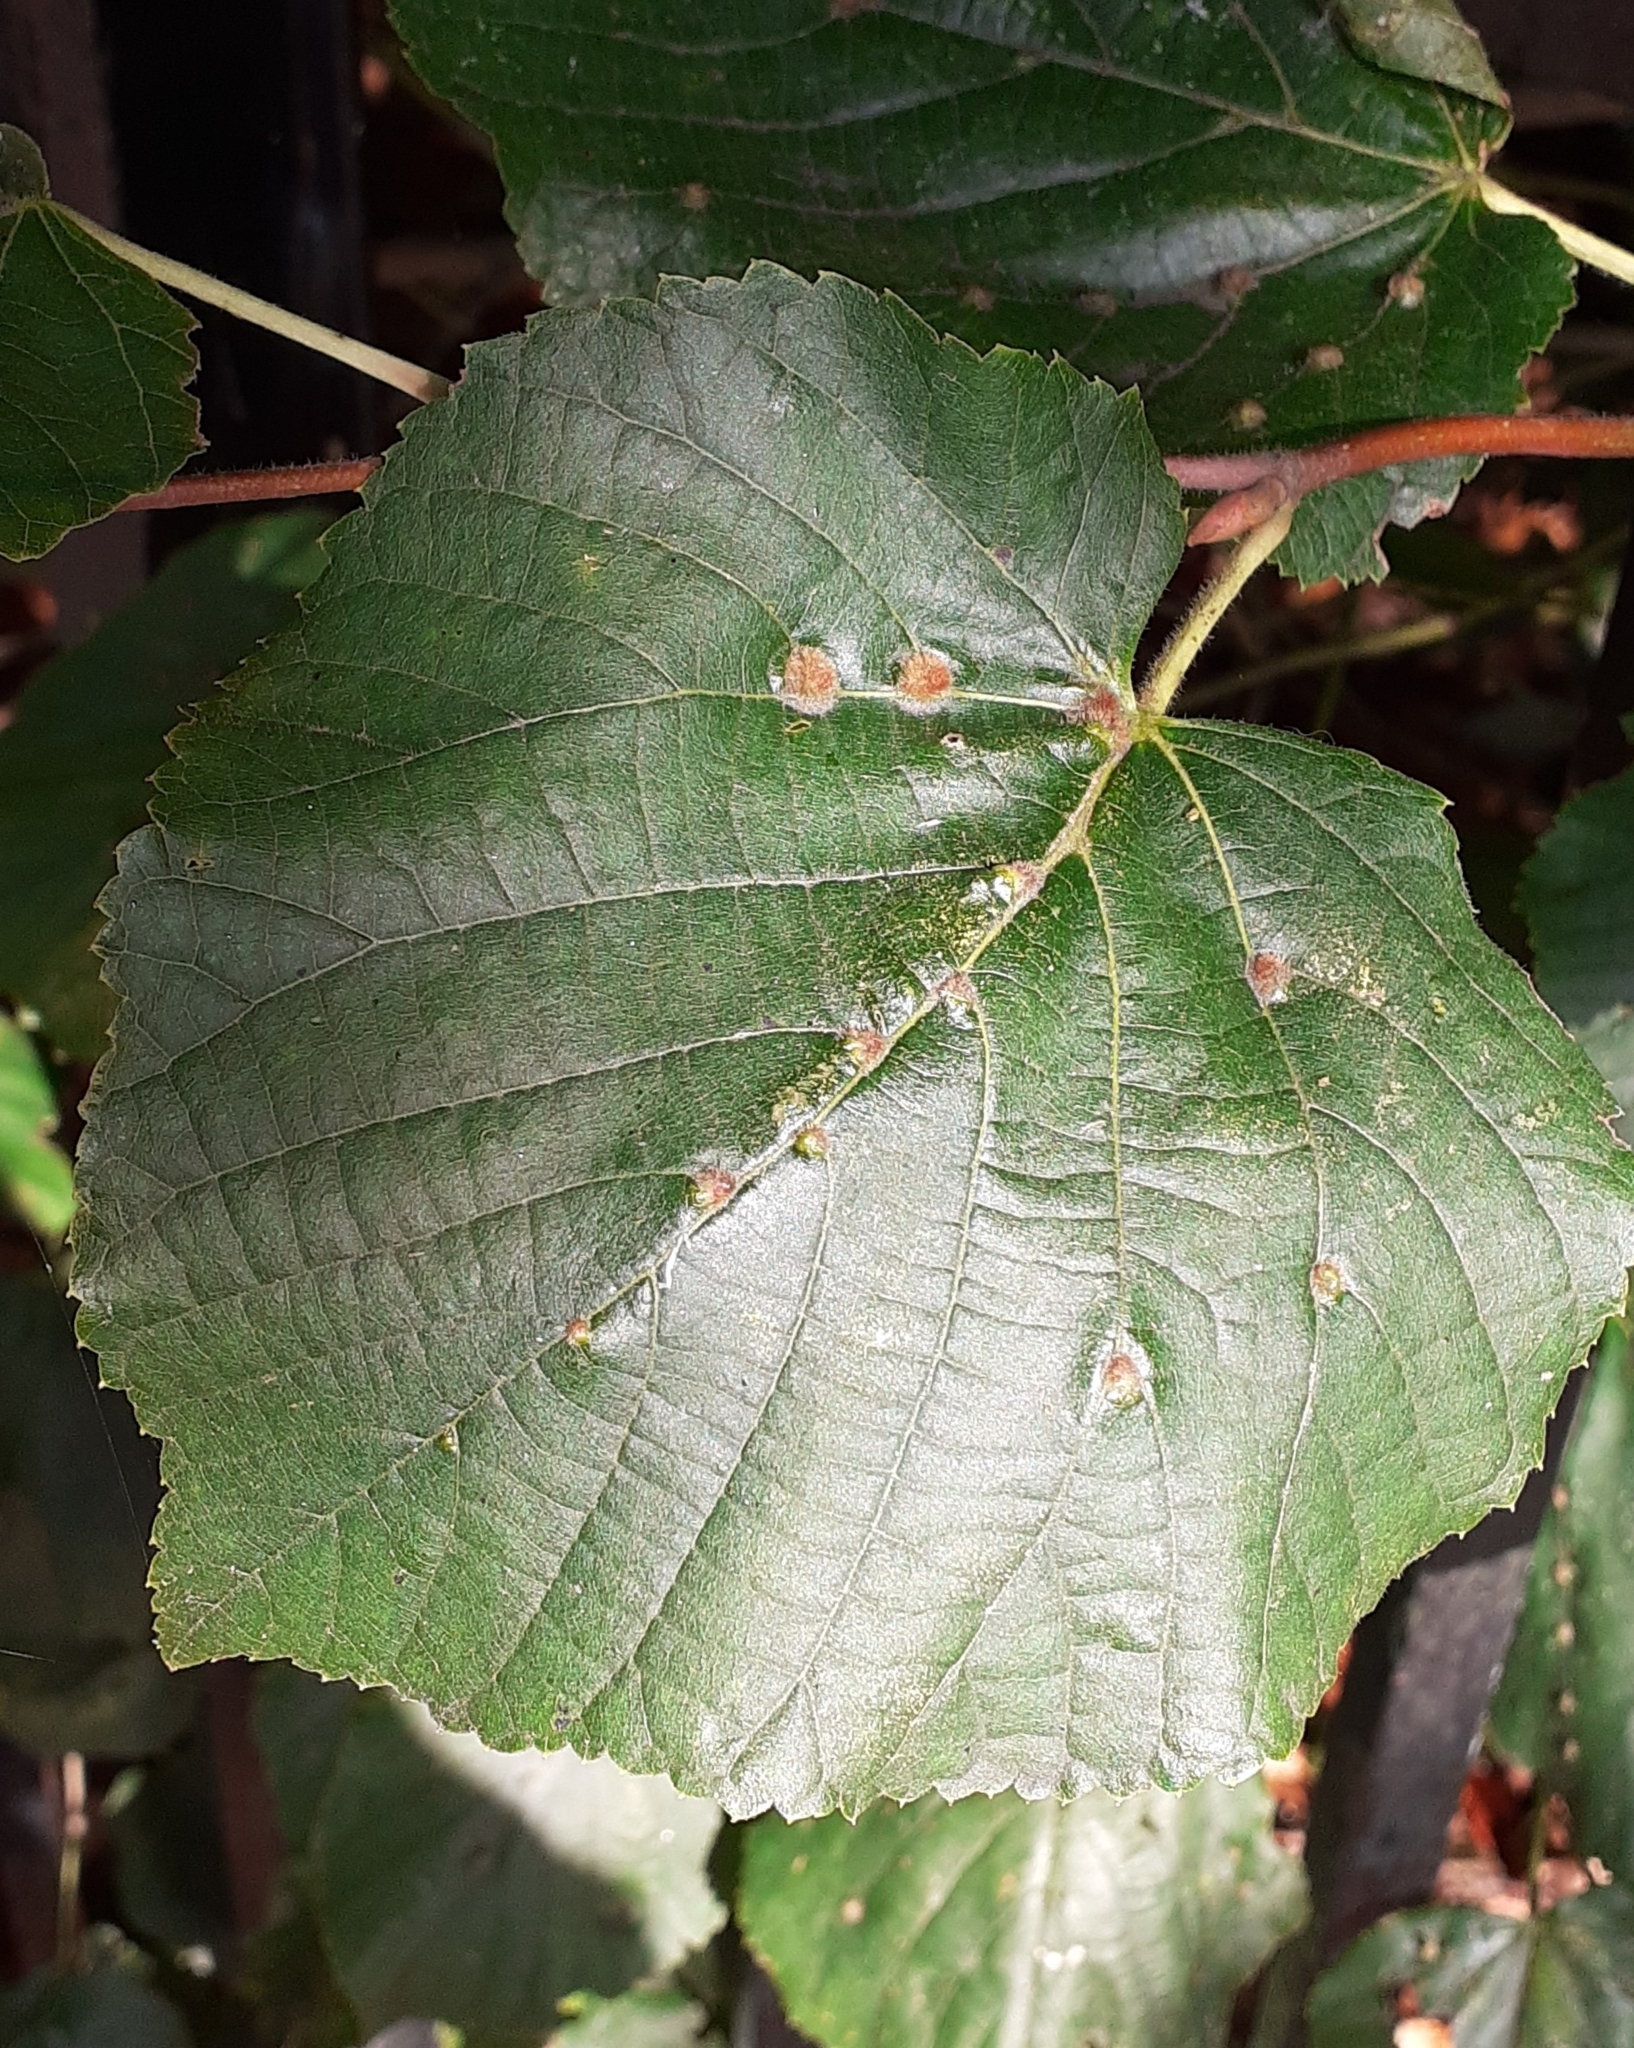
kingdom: Animalia
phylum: Arthropoda
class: Arachnida
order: Trombidiformes
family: Eriophyidae
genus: Eriophyes
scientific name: Eriophyes exilis
